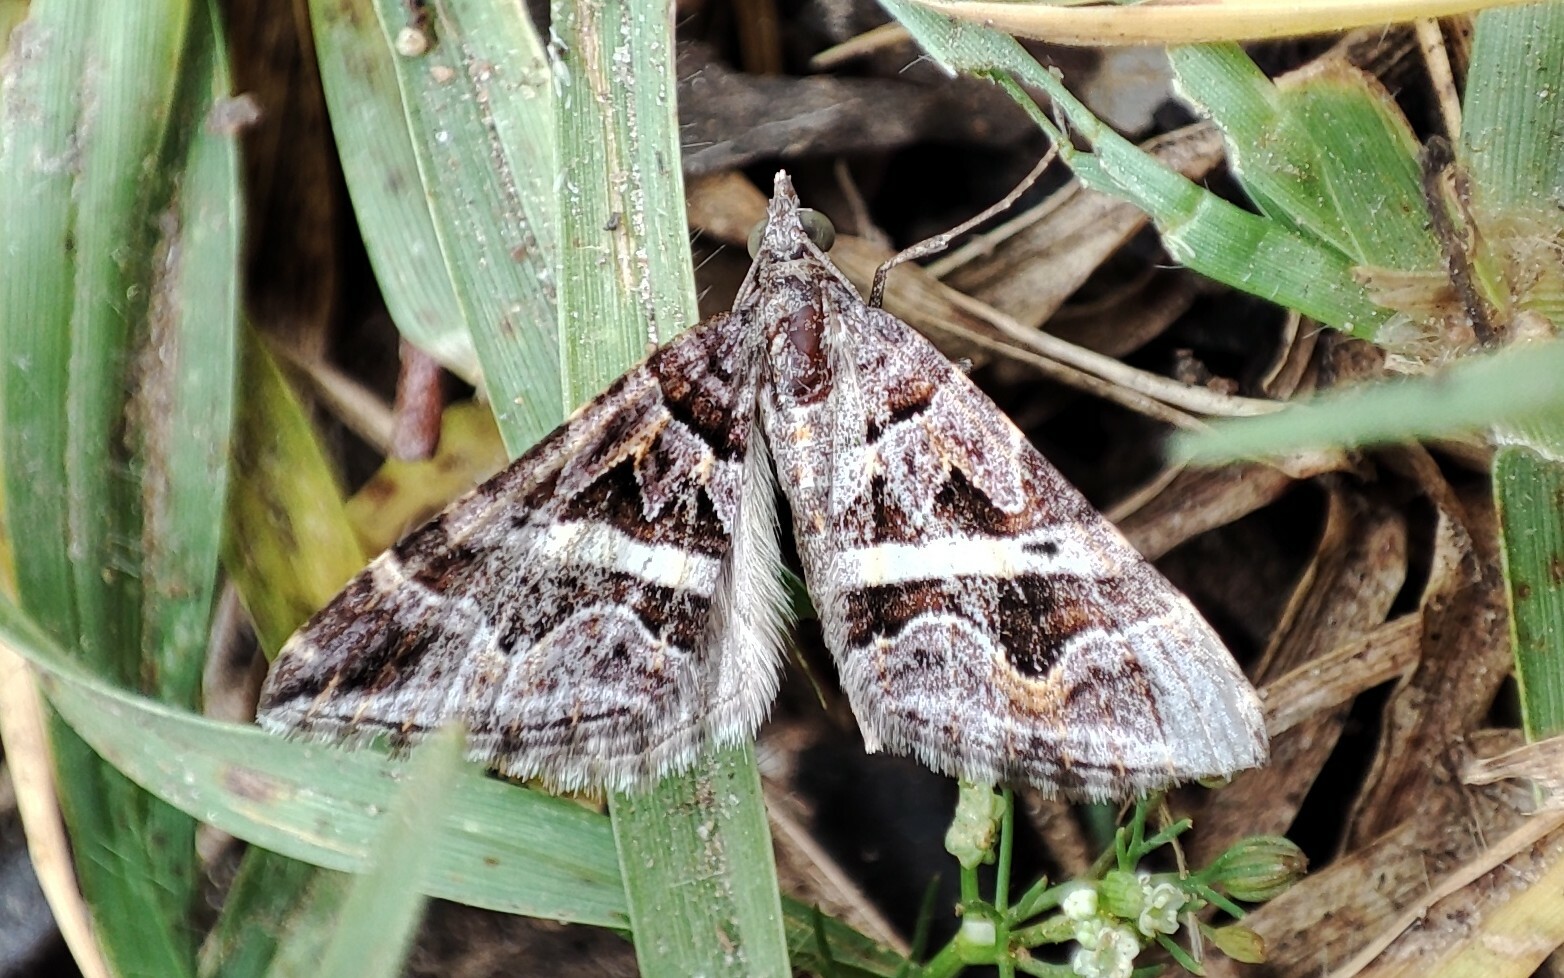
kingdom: Animalia
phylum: Arthropoda
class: Insecta
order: Lepidoptera
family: Geometridae
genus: Haplolabida
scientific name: Haplolabida inaequata
